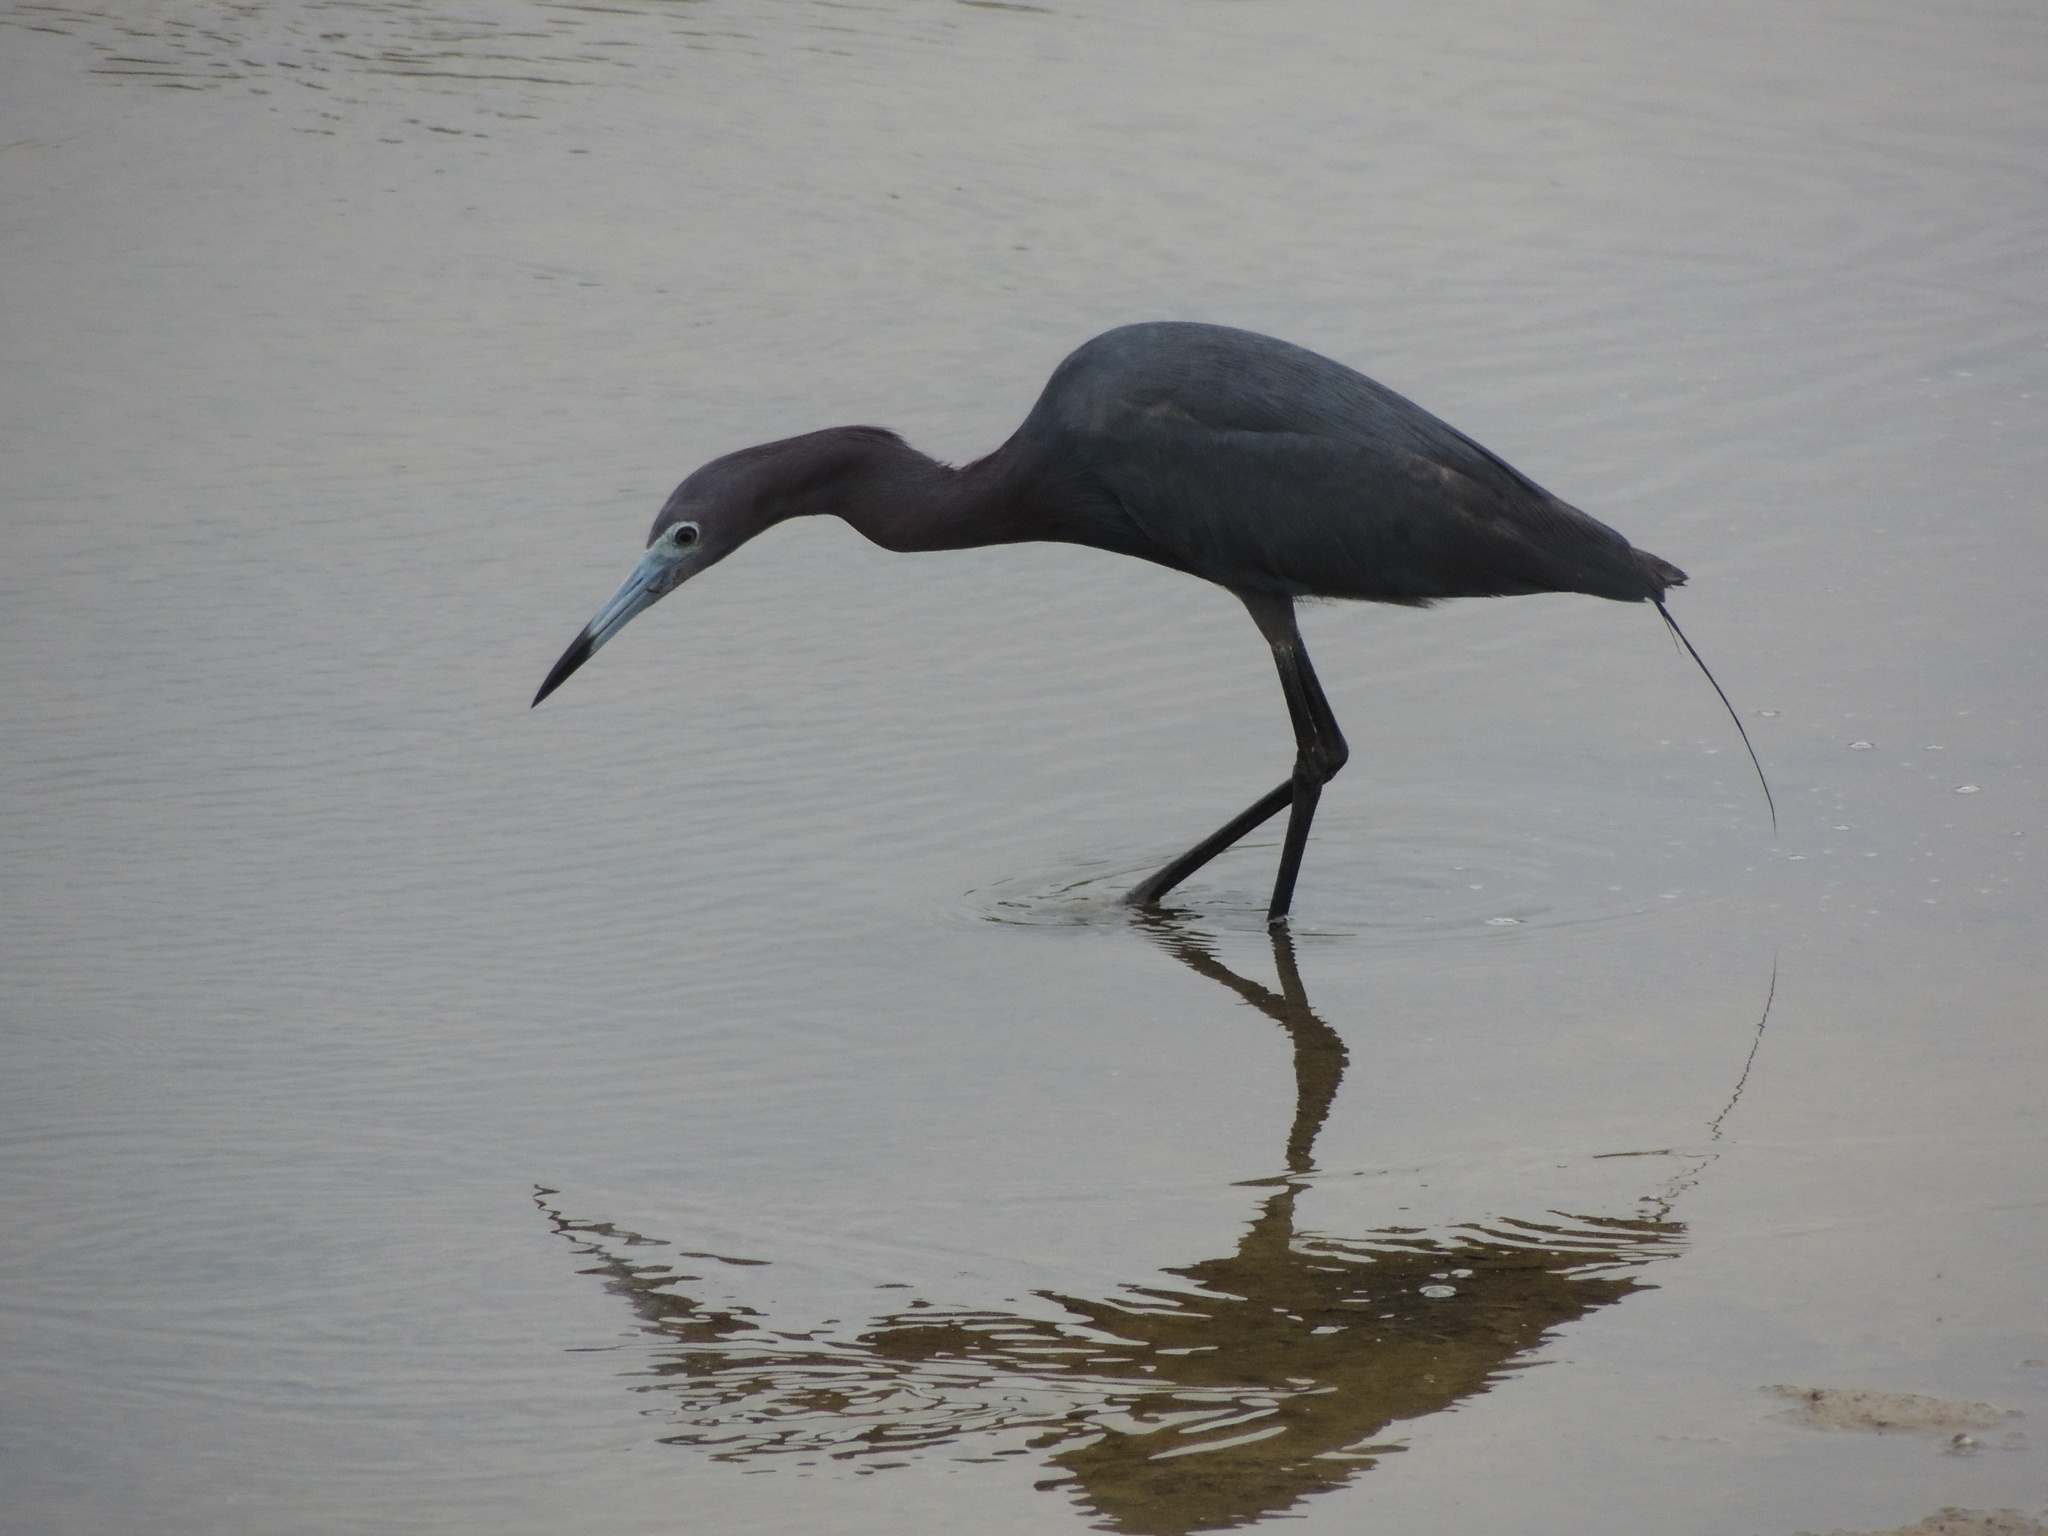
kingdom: Animalia
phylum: Chordata
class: Aves
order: Pelecaniformes
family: Ardeidae
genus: Egretta
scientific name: Egretta caerulea
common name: Little blue heron
